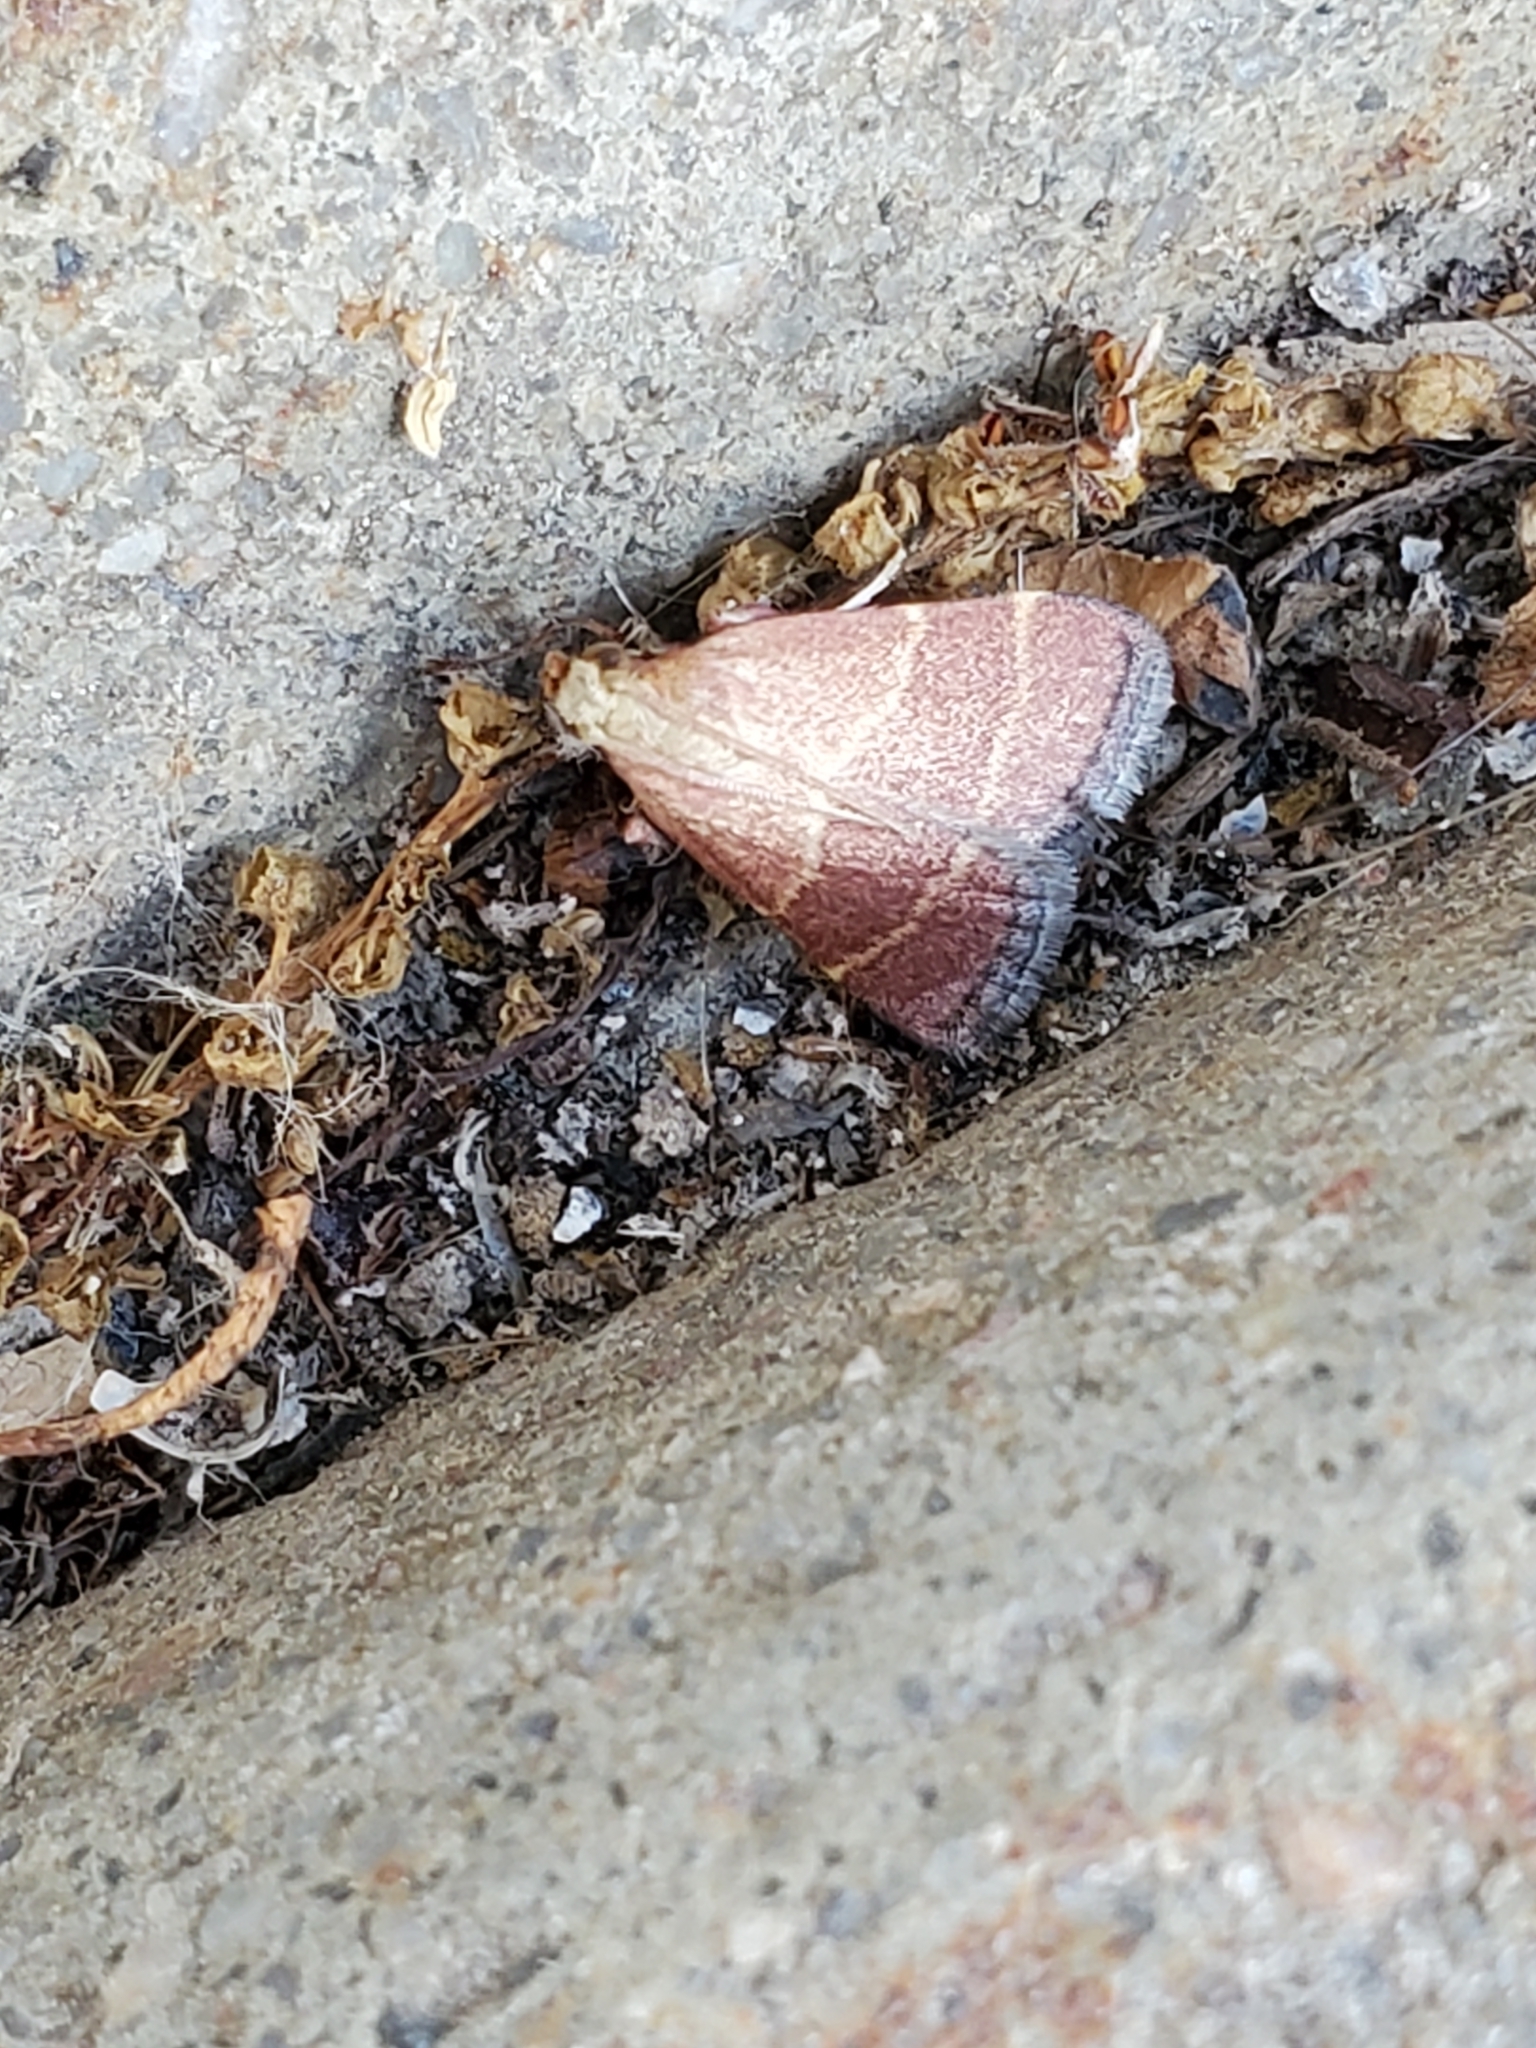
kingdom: Animalia
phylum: Arthropoda
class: Insecta
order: Lepidoptera
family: Pyralidae
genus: Arta
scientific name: Arta statalis
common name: Posturing arta moth
